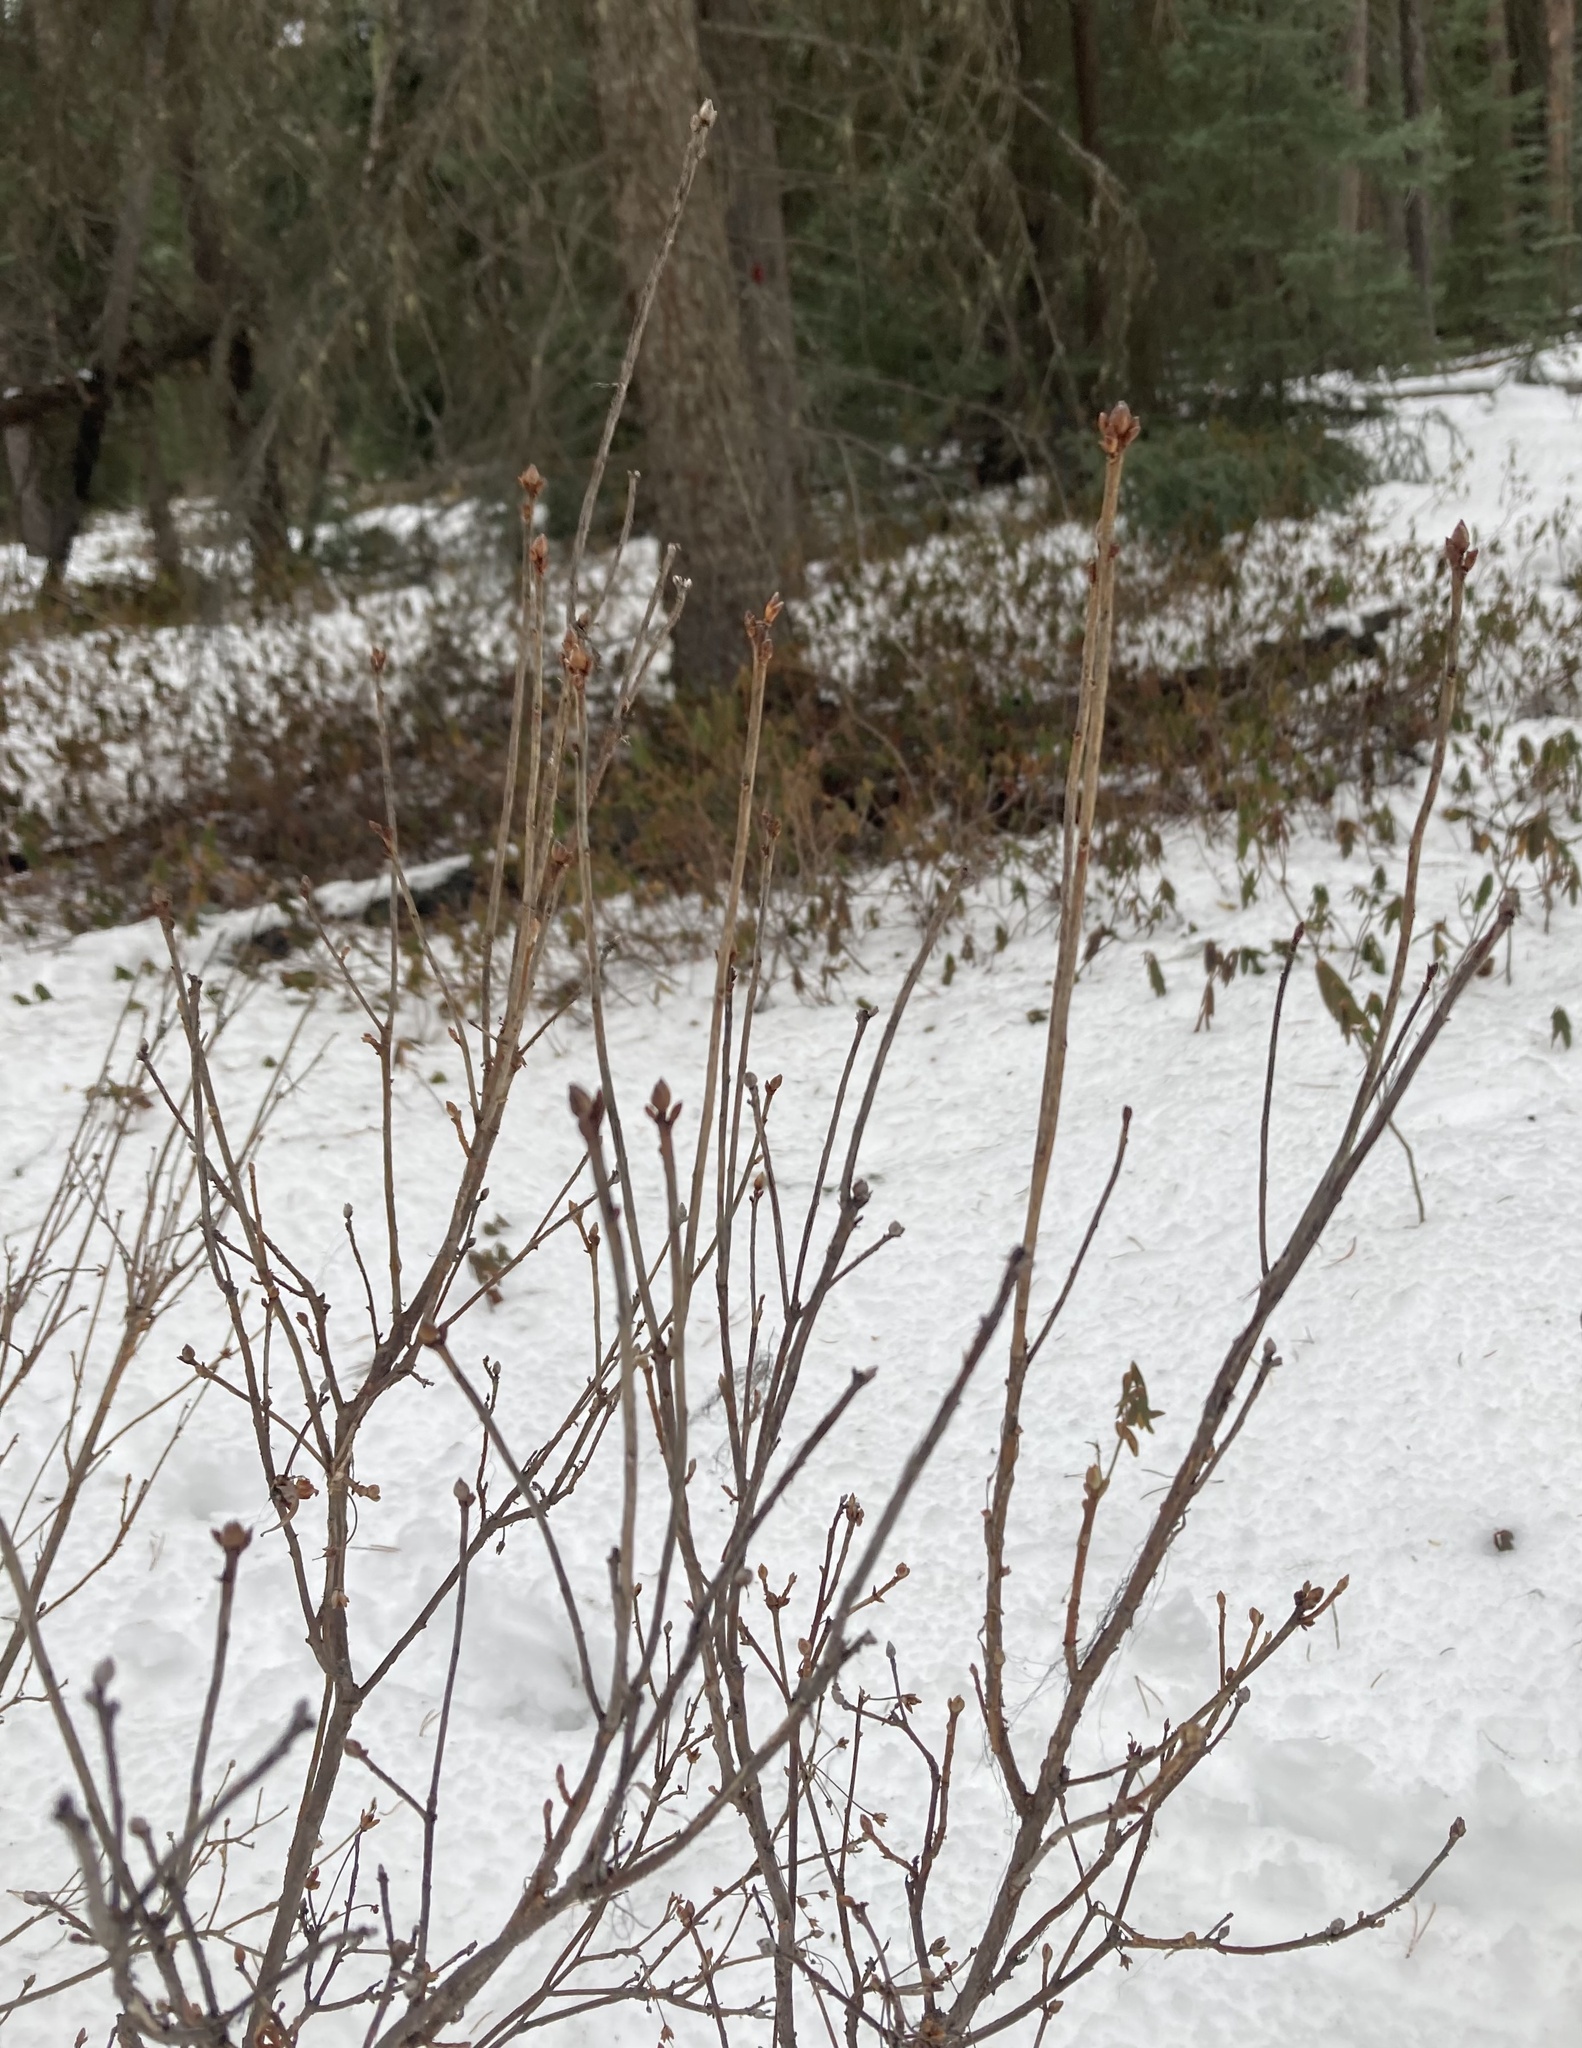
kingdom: Plantae
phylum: Tracheophyta
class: Magnoliopsida
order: Ericales
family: Ericaceae
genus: Rhododendron
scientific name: Rhododendron menziesii
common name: Pacific menziesia
